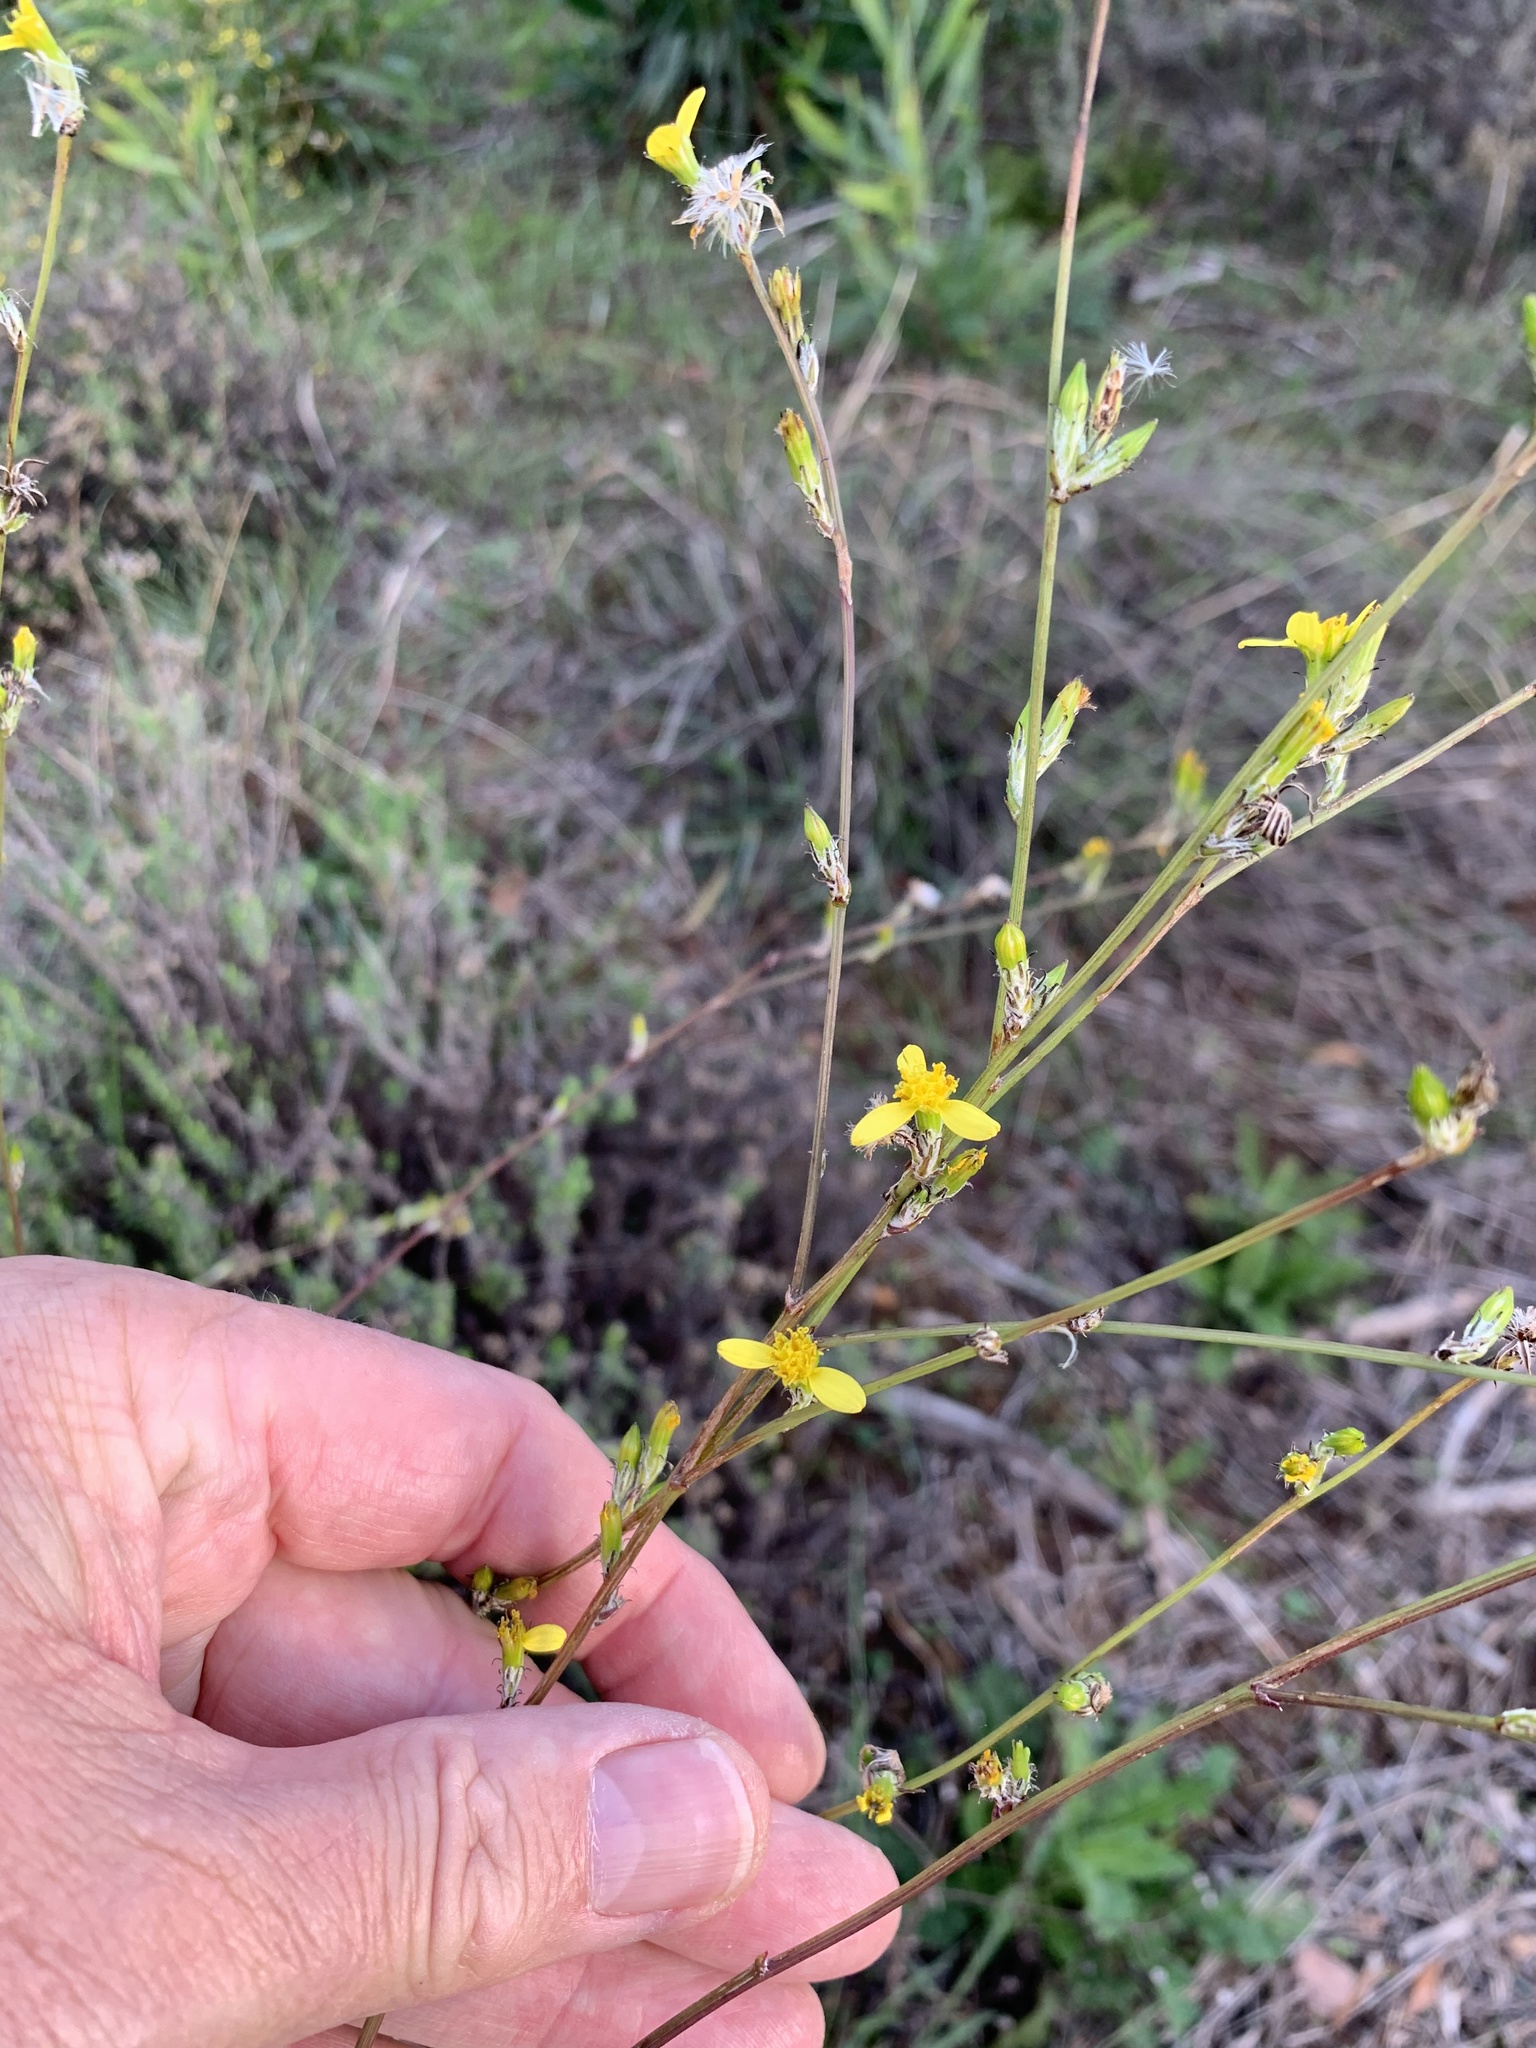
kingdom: Plantae
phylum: Tracheophyta
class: Magnoliopsida
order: Asterales
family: Asteraceae
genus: Senecio
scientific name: Senecio pubigerus
